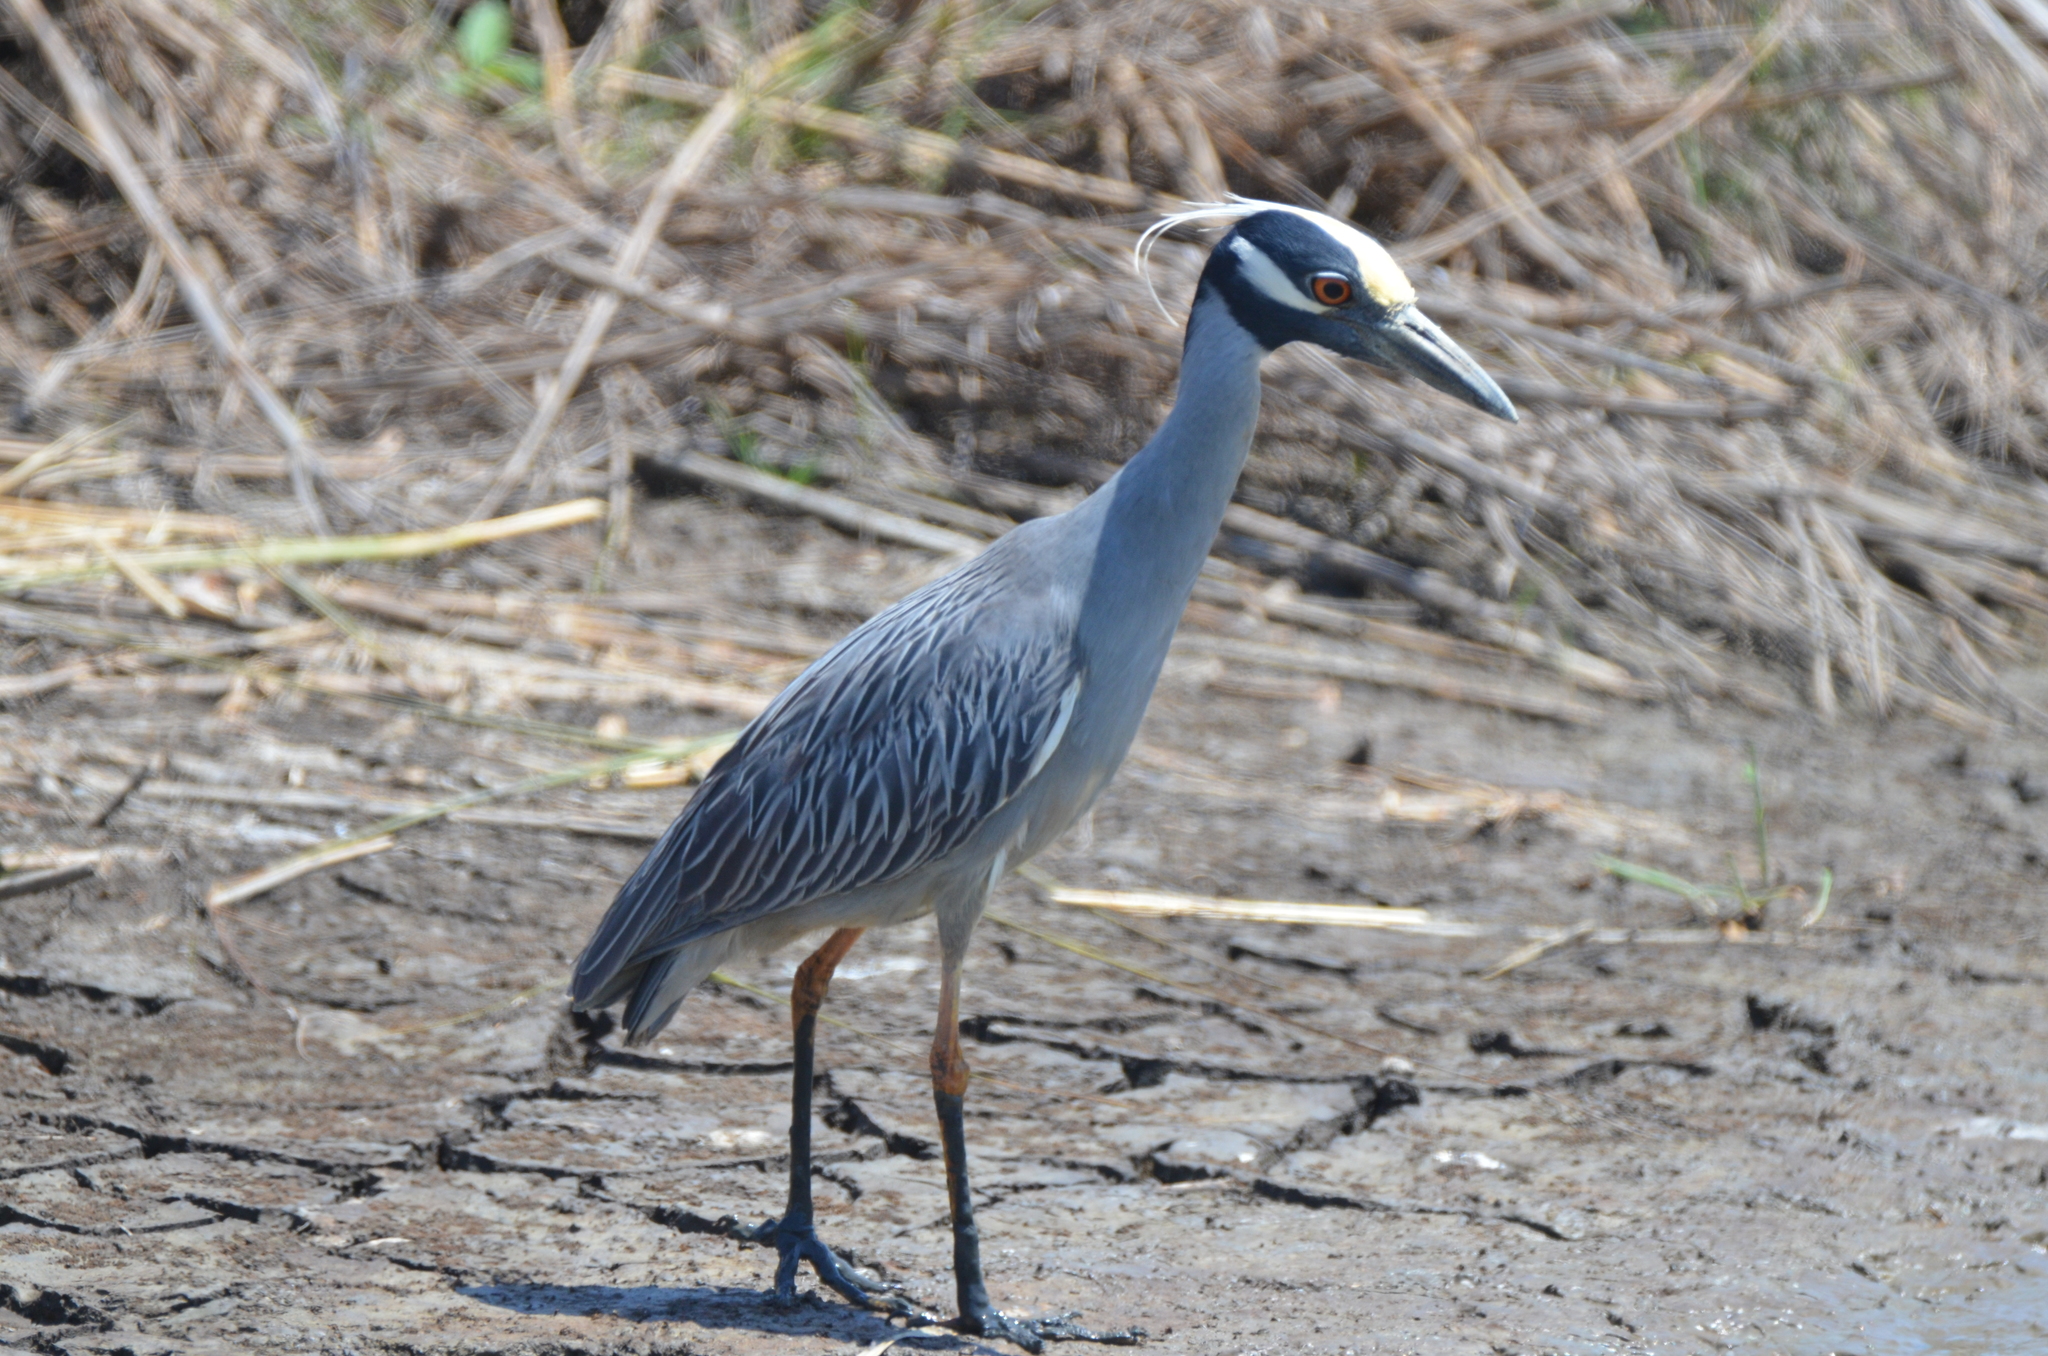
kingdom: Animalia
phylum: Chordata
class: Aves
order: Pelecaniformes
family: Ardeidae
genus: Nyctanassa
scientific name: Nyctanassa violacea
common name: Yellow-crowned night heron
